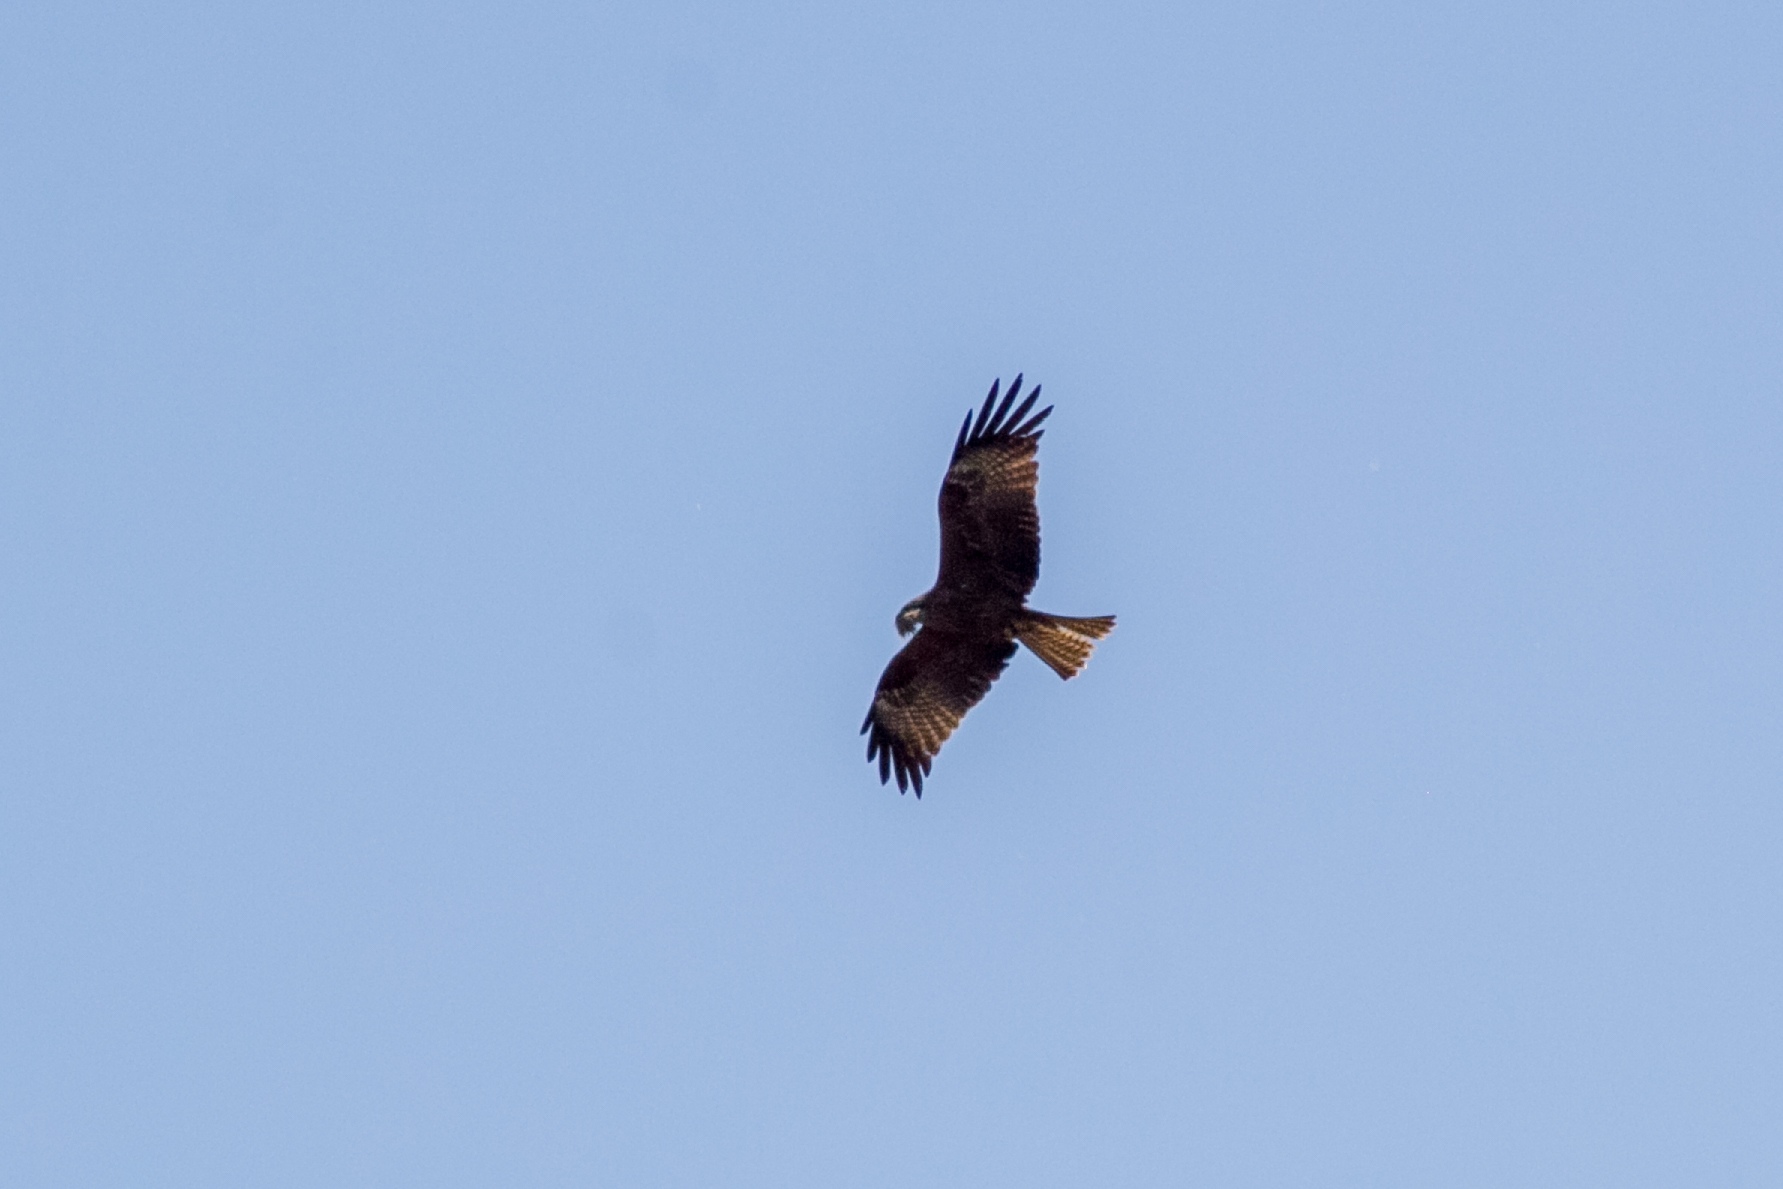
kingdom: Animalia
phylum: Chordata
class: Aves
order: Accipitriformes
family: Accipitridae
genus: Milvus
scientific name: Milvus migrans
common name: Black kite
